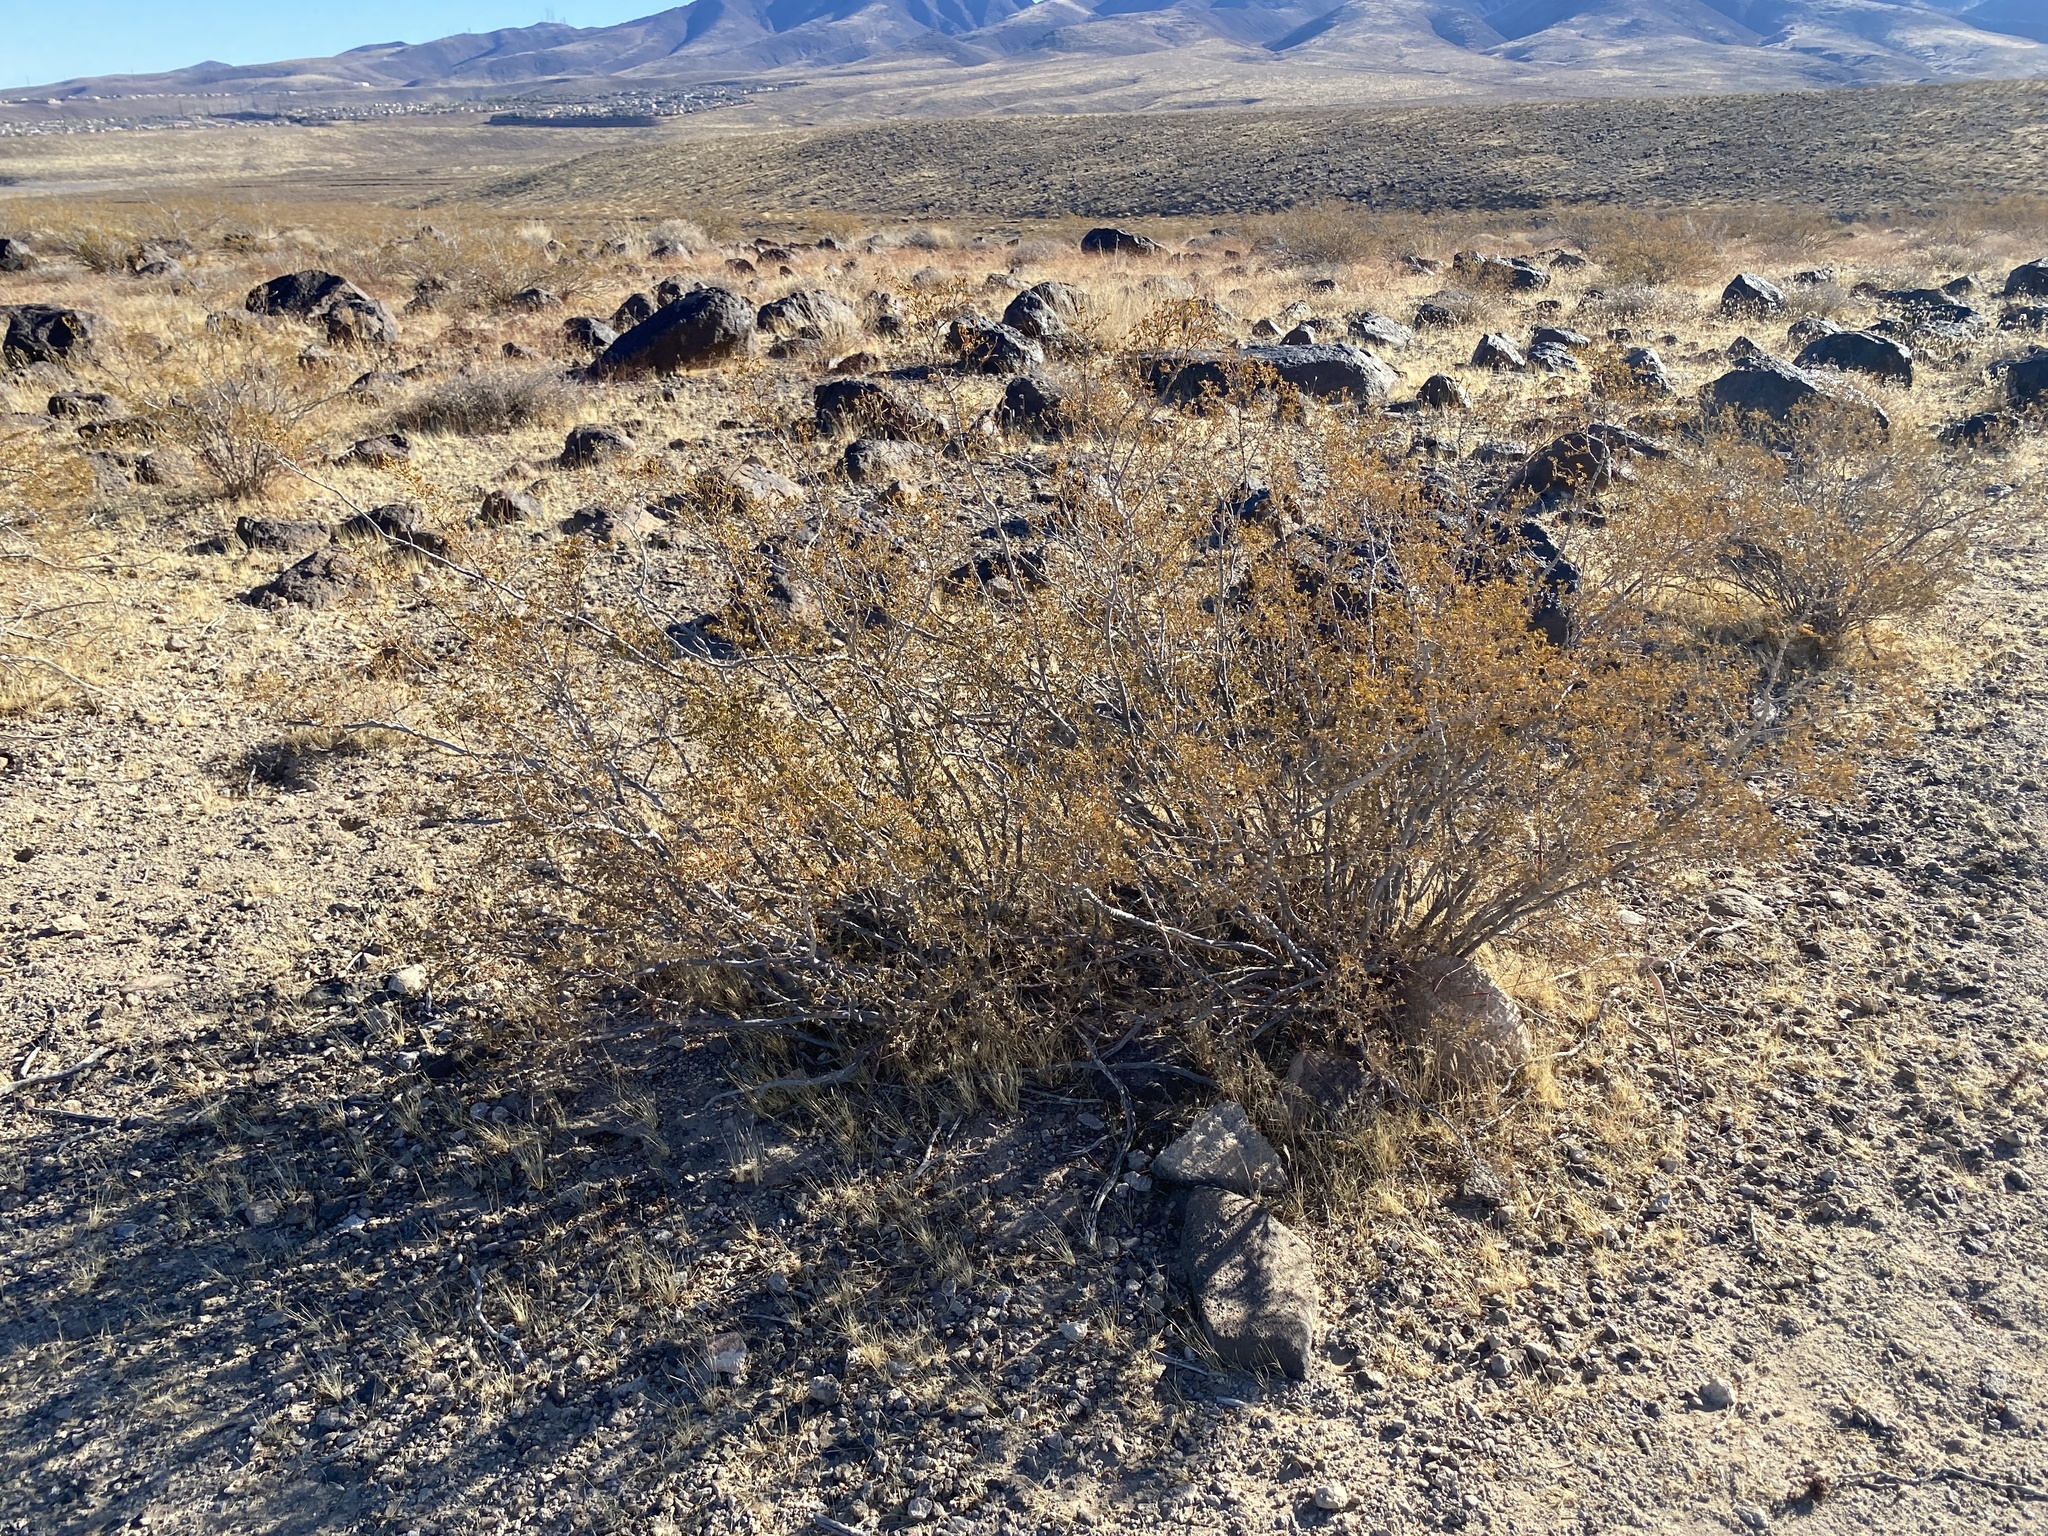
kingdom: Plantae
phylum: Tracheophyta
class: Magnoliopsida
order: Zygophyllales
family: Zygophyllaceae
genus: Larrea
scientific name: Larrea tridentata
